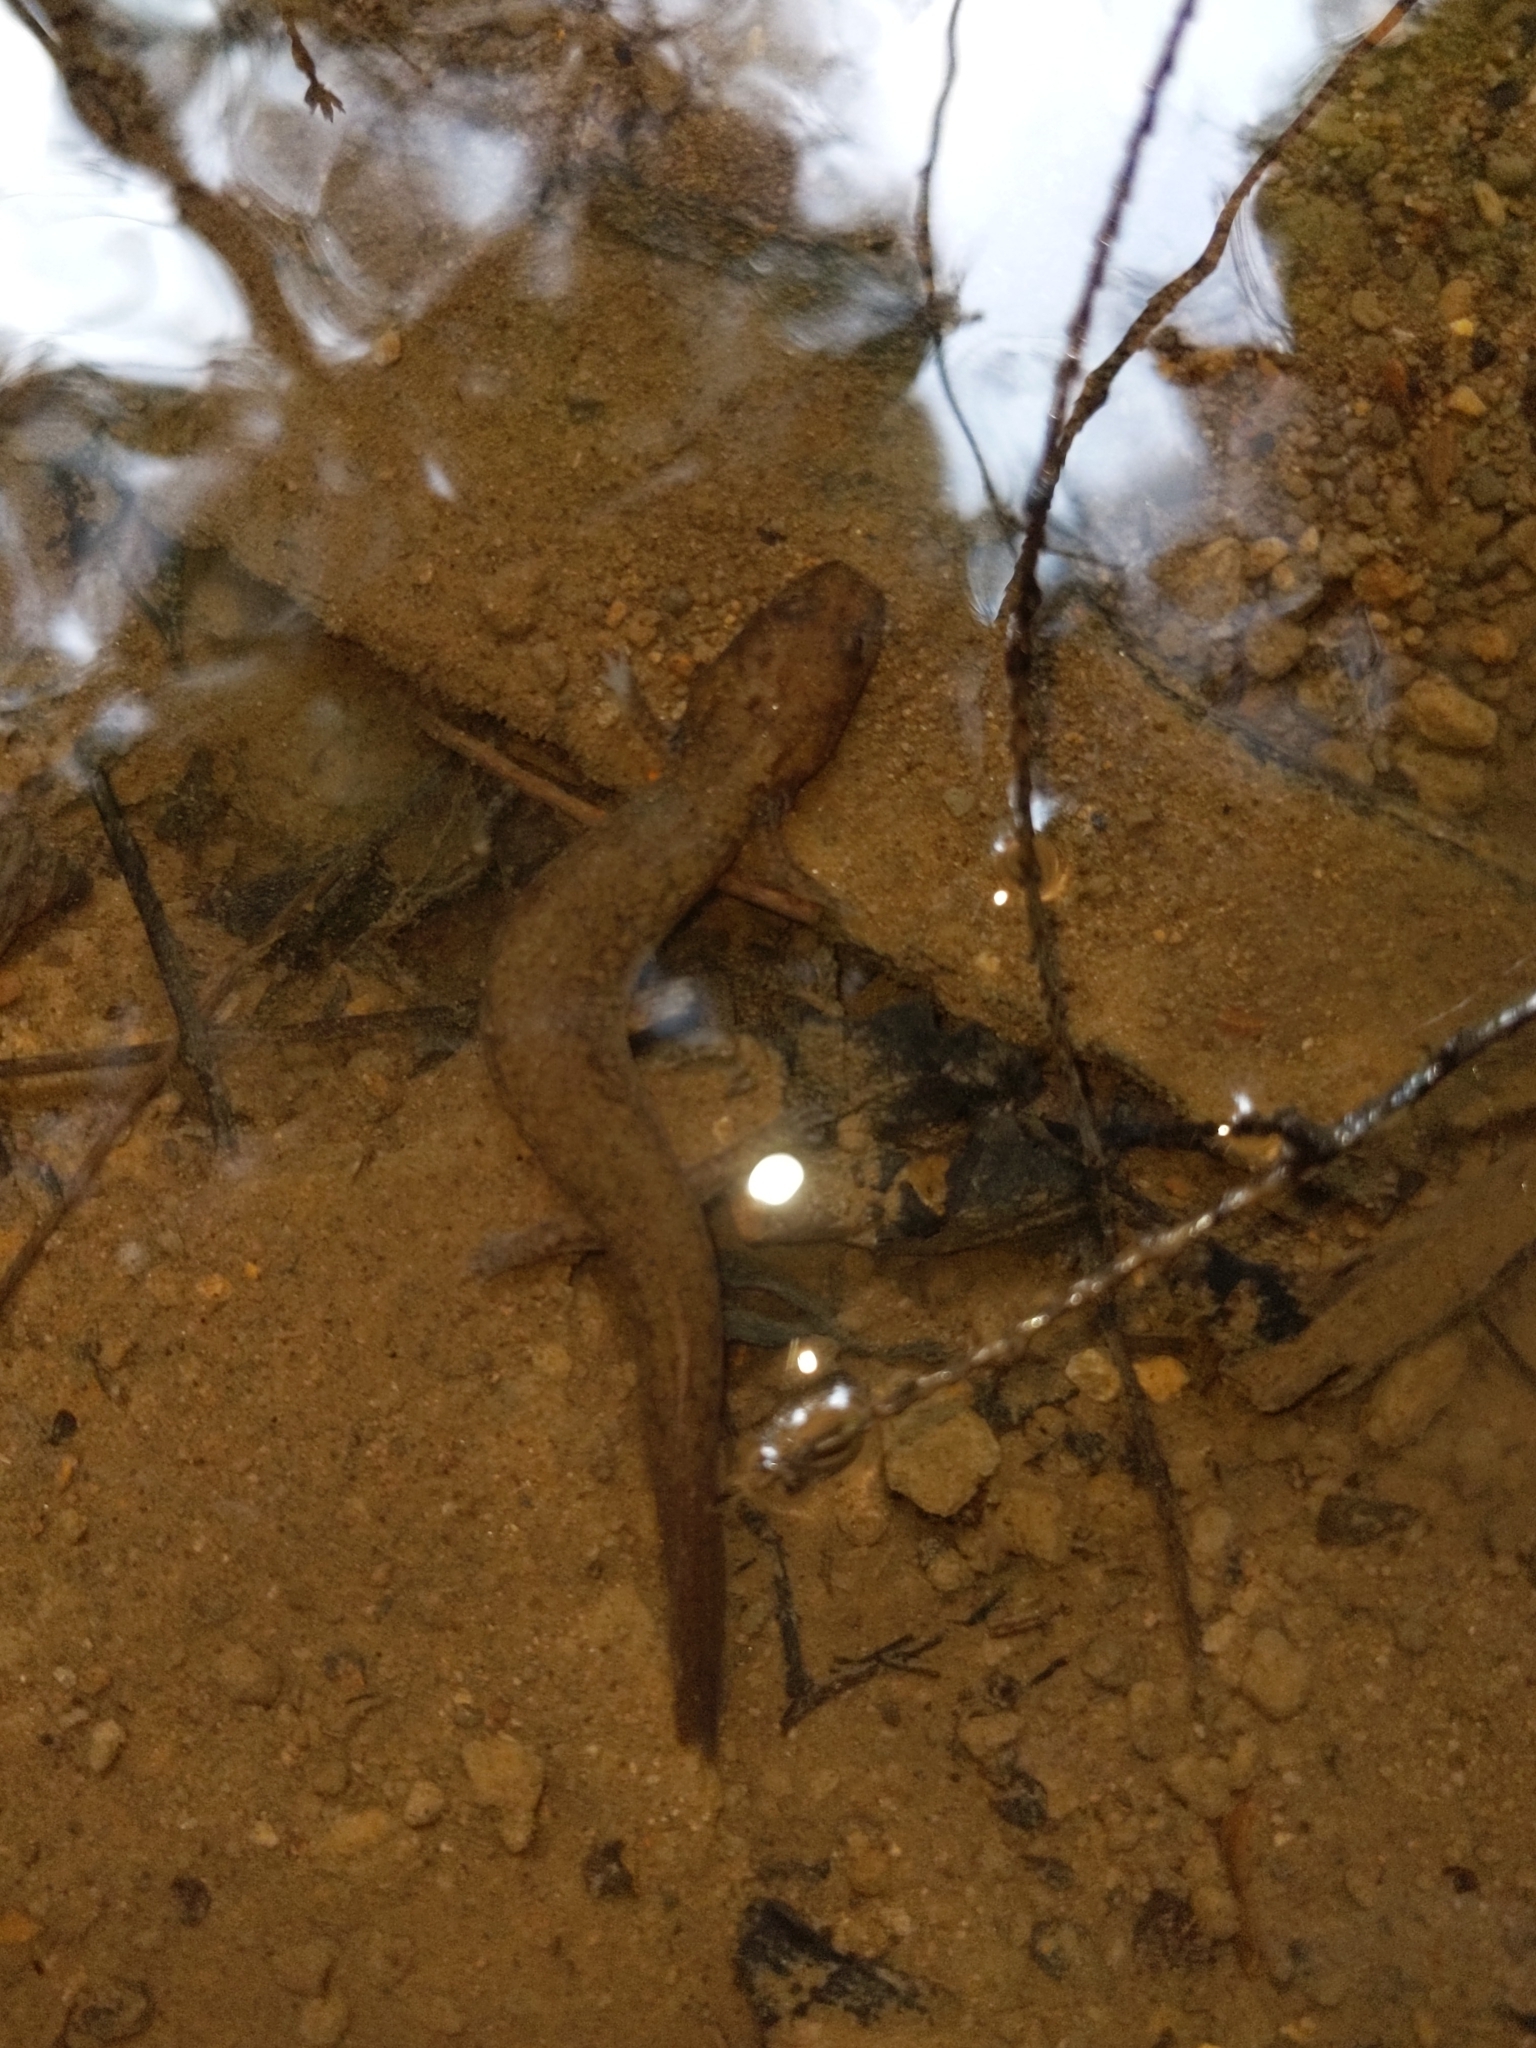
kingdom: Animalia
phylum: Chordata
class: Amphibia
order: Caudata
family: Plethodontidae
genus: Gyrinophilus
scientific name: Gyrinophilus porphyriticus
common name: Spring salamander
